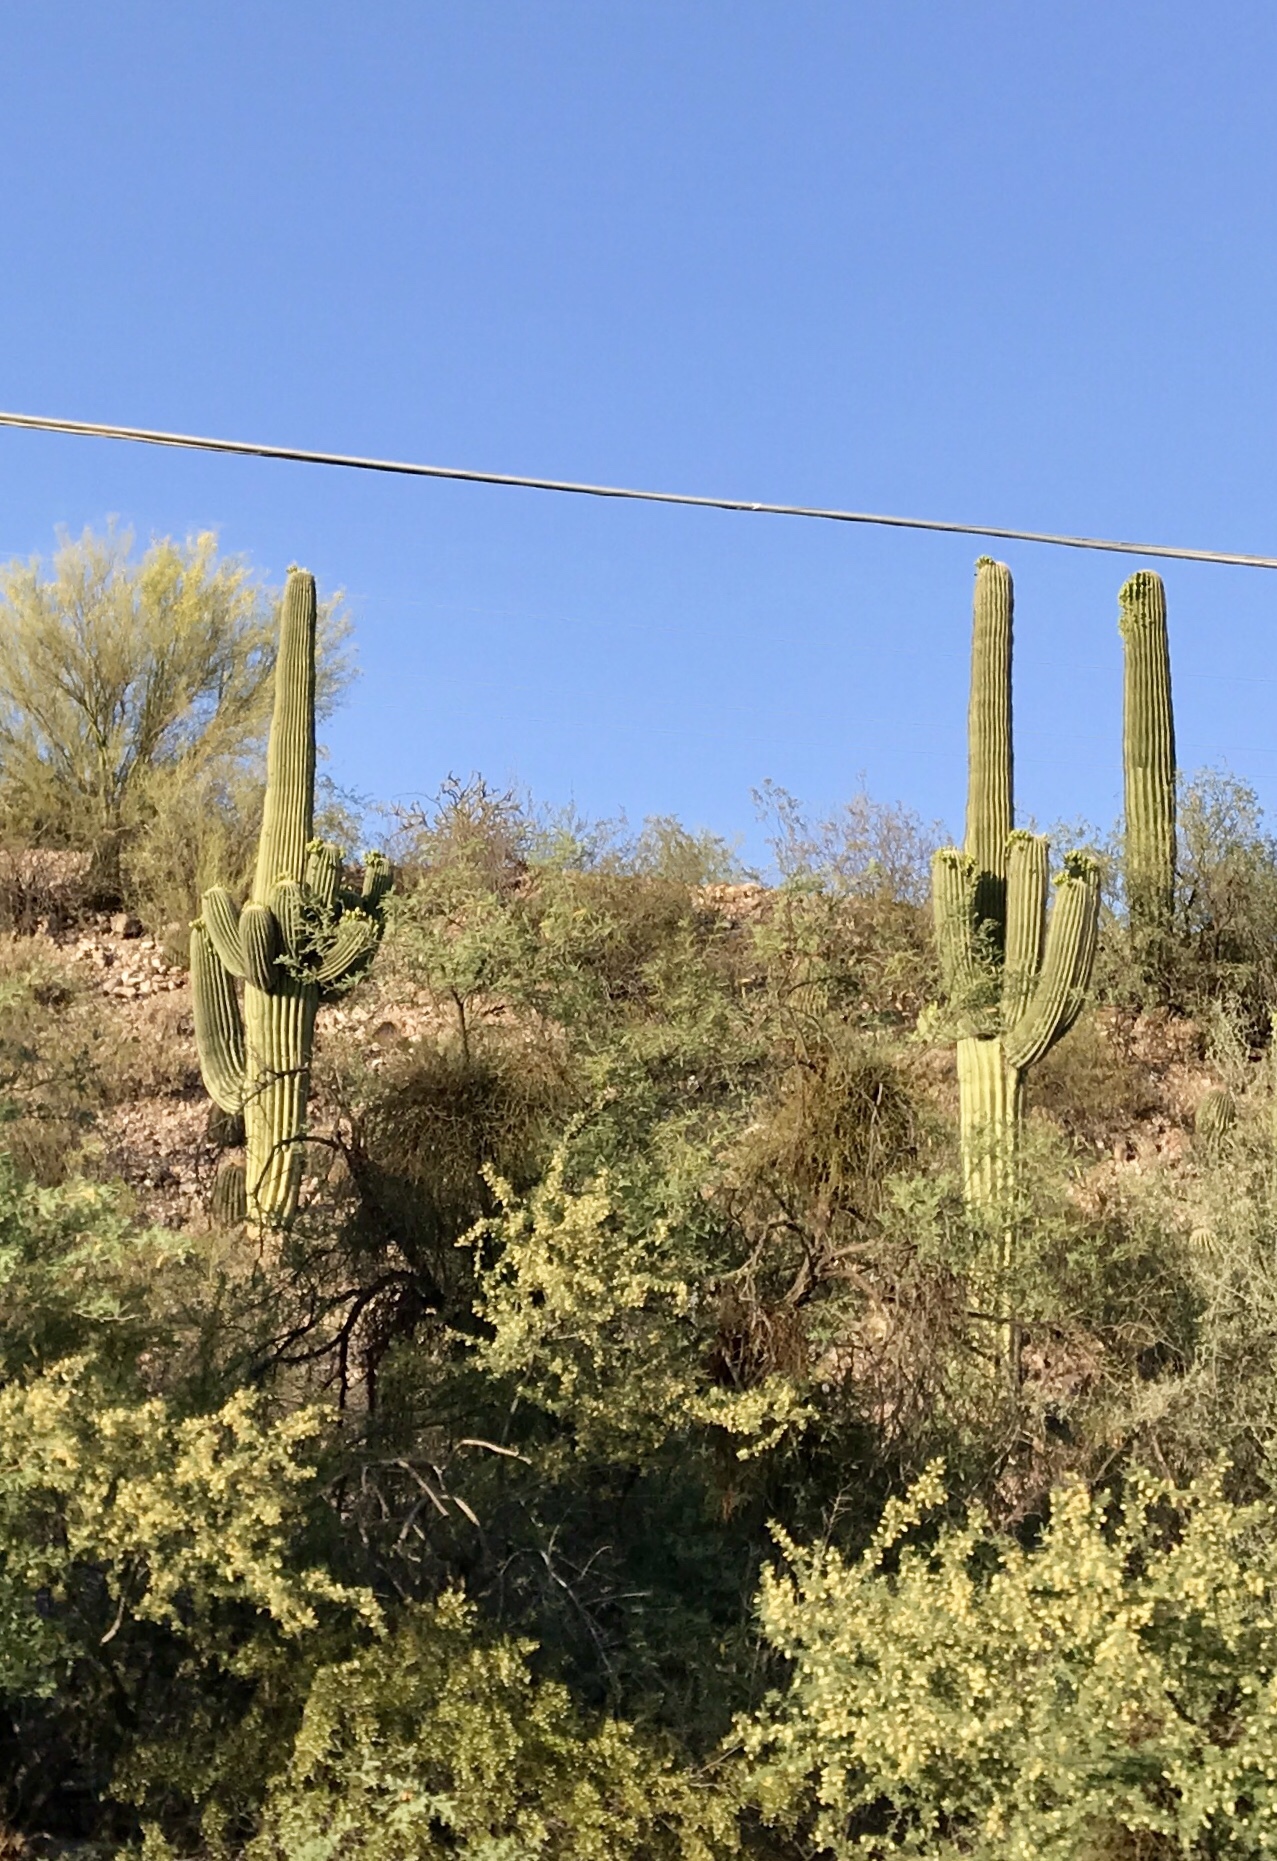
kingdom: Plantae
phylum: Tracheophyta
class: Magnoliopsida
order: Caryophyllales
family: Cactaceae
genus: Carnegiea
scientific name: Carnegiea gigantea
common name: Saguaro
